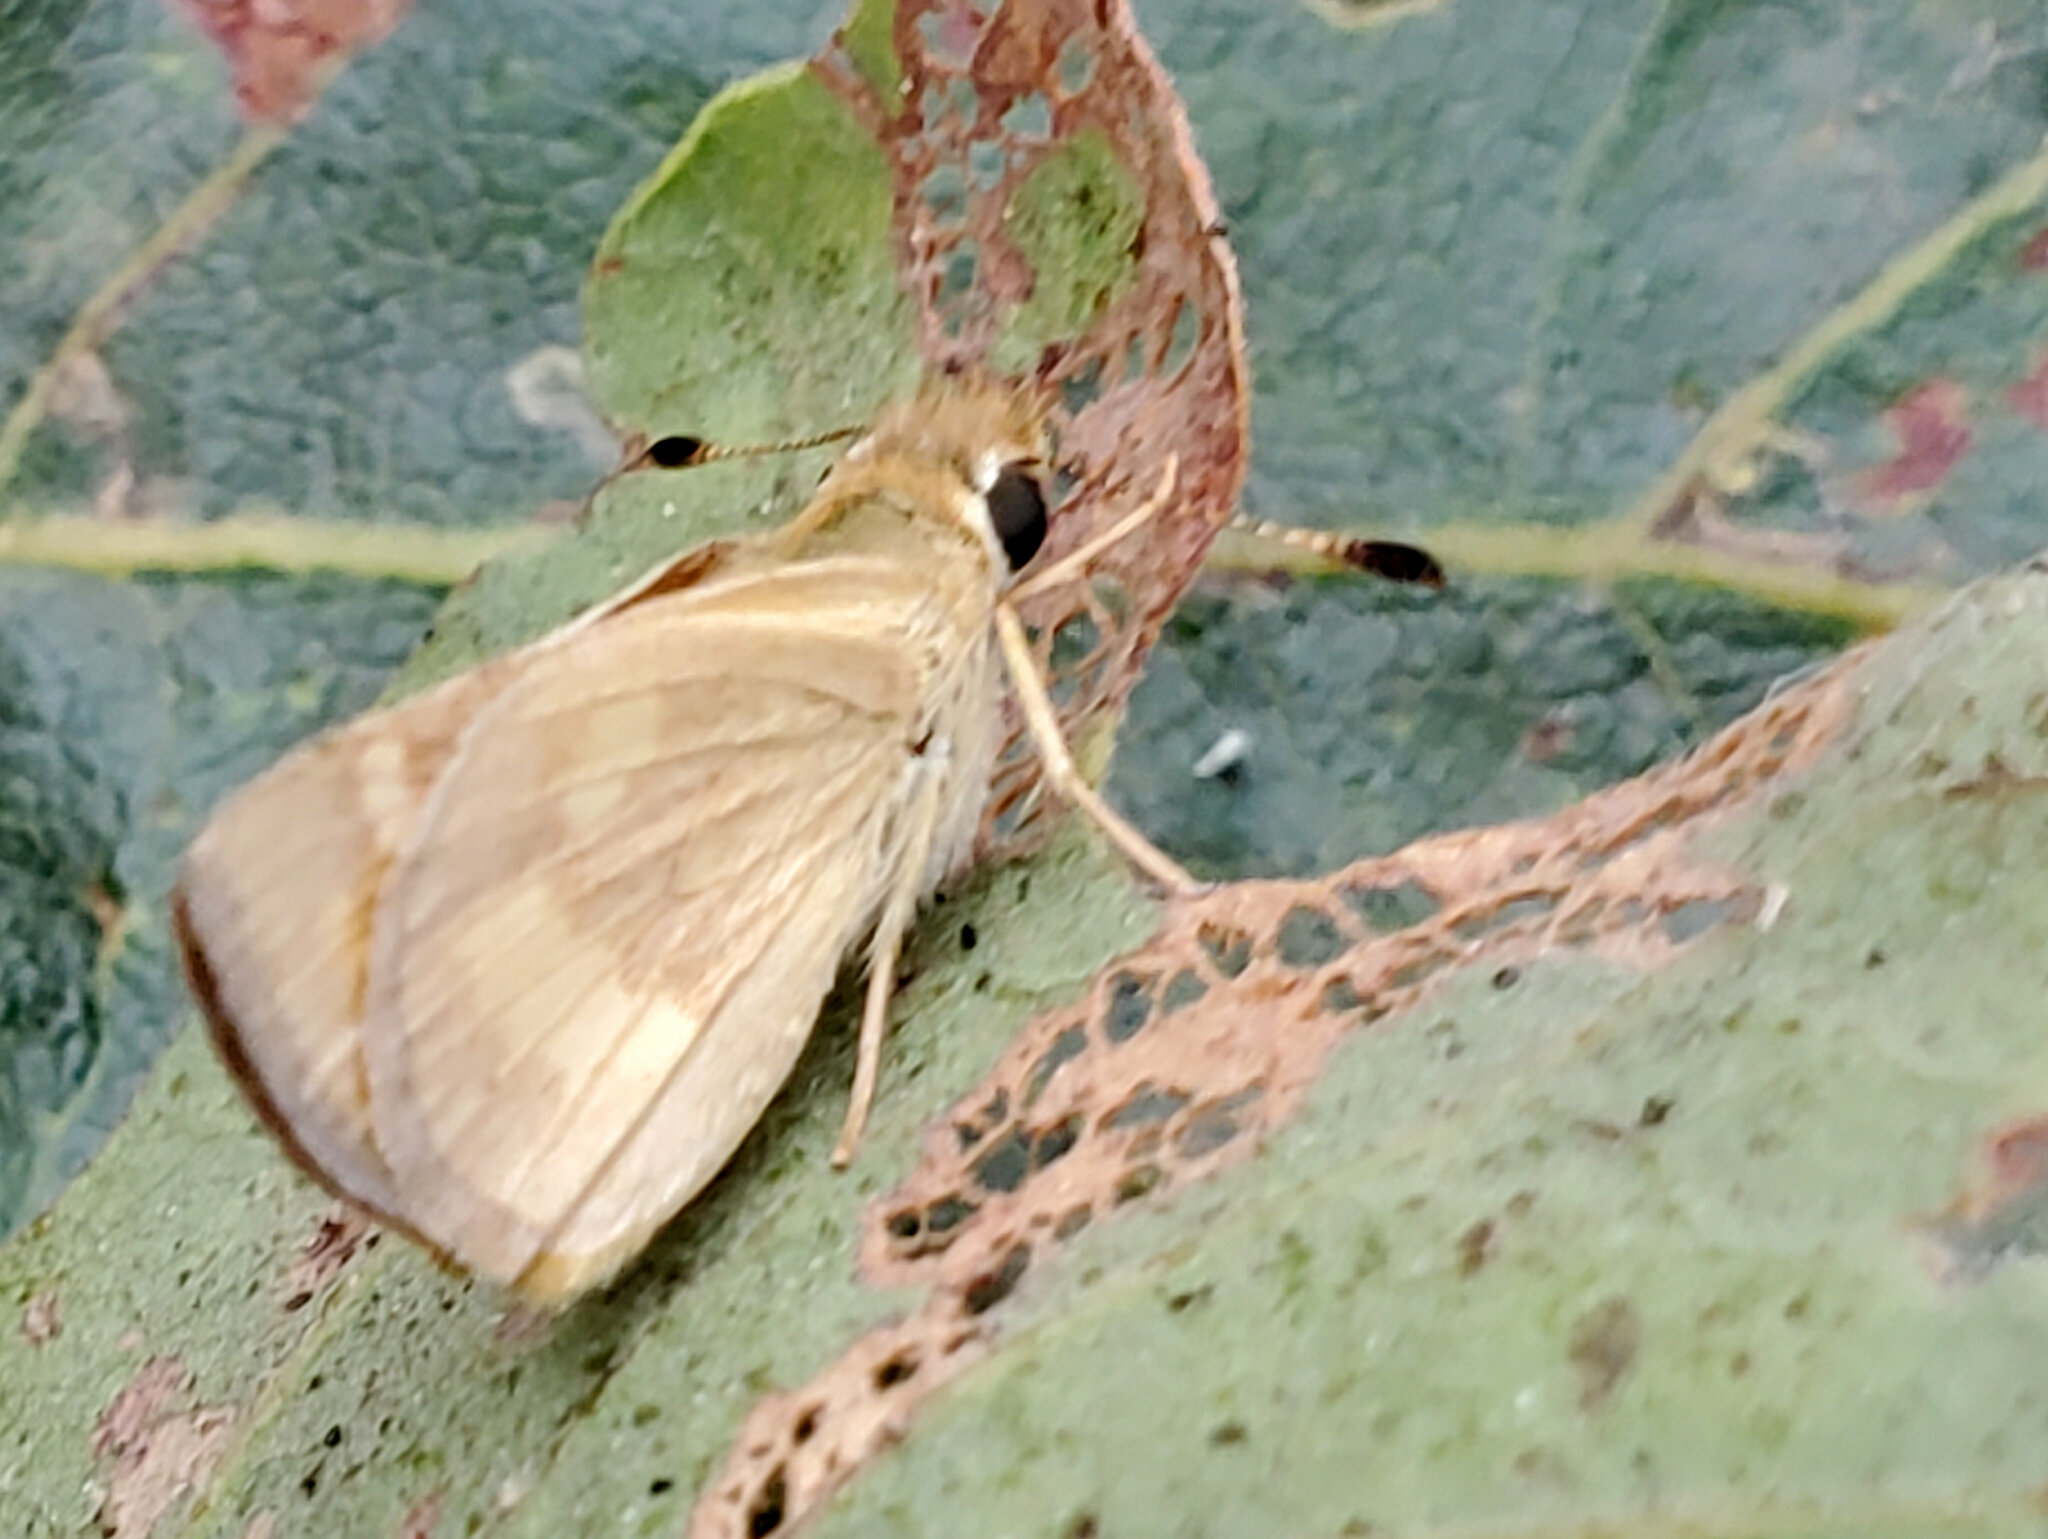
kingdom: Animalia
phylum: Arthropoda
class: Insecta
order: Lepidoptera
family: Hesperiidae
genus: Ochlodes
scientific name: Ochlodes sylvanoides
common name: Woodland skipper
